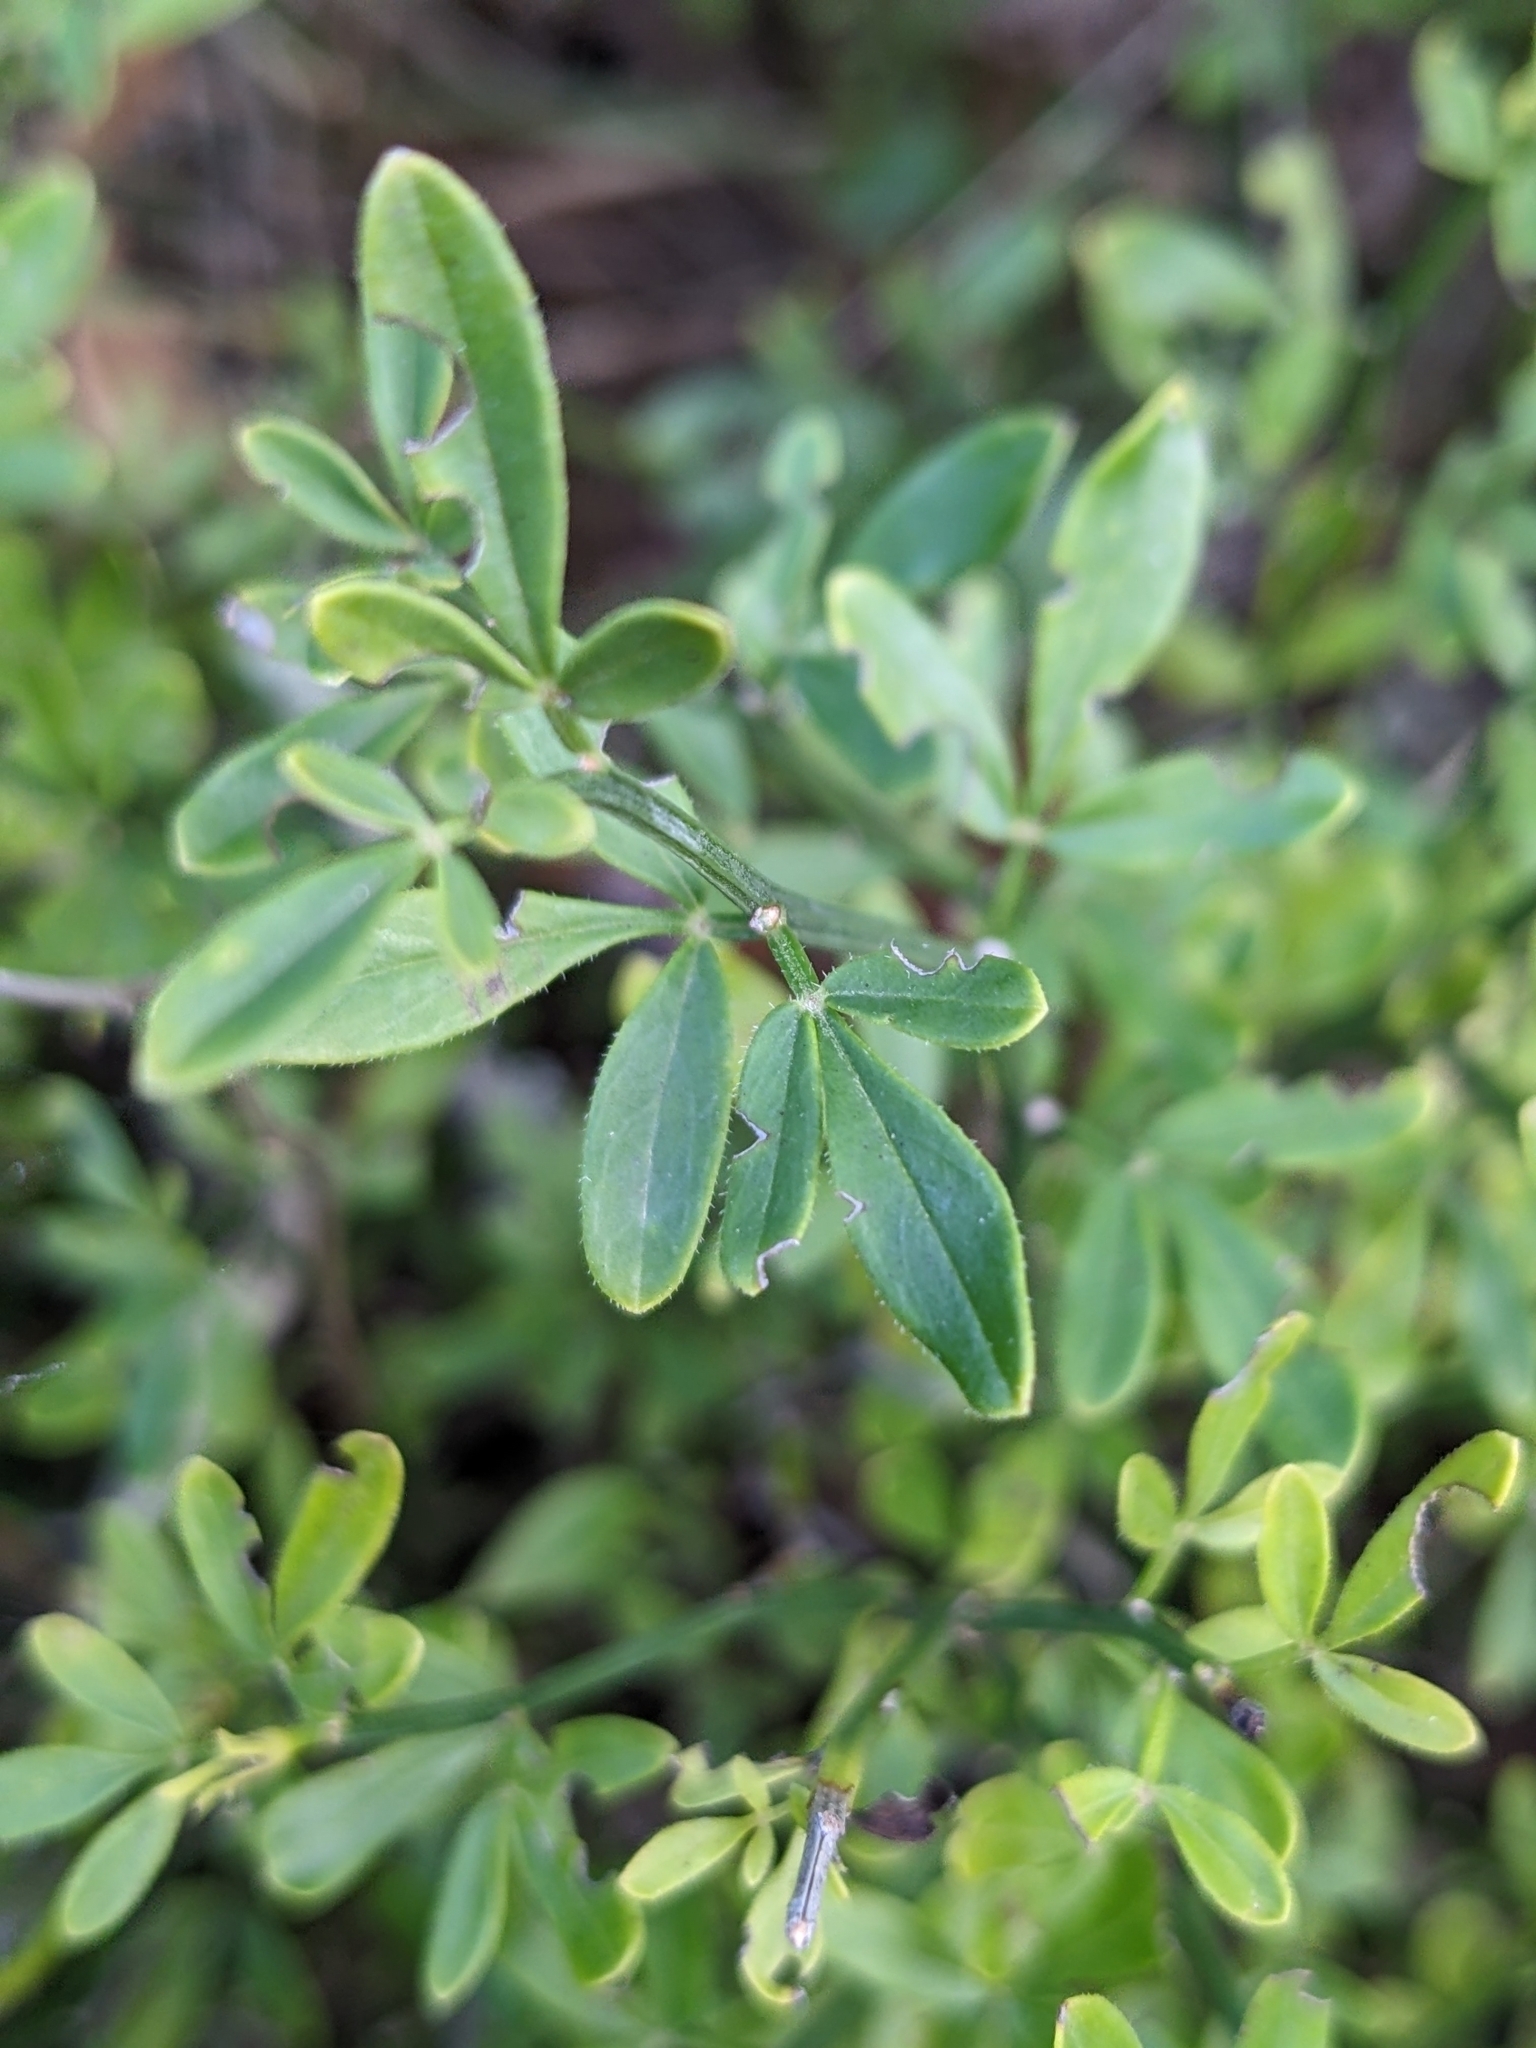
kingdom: Plantae
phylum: Tracheophyta
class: Magnoliopsida
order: Lamiales
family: Oleaceae
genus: Chrysojasminum
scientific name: Chrysojasminum fruticans
